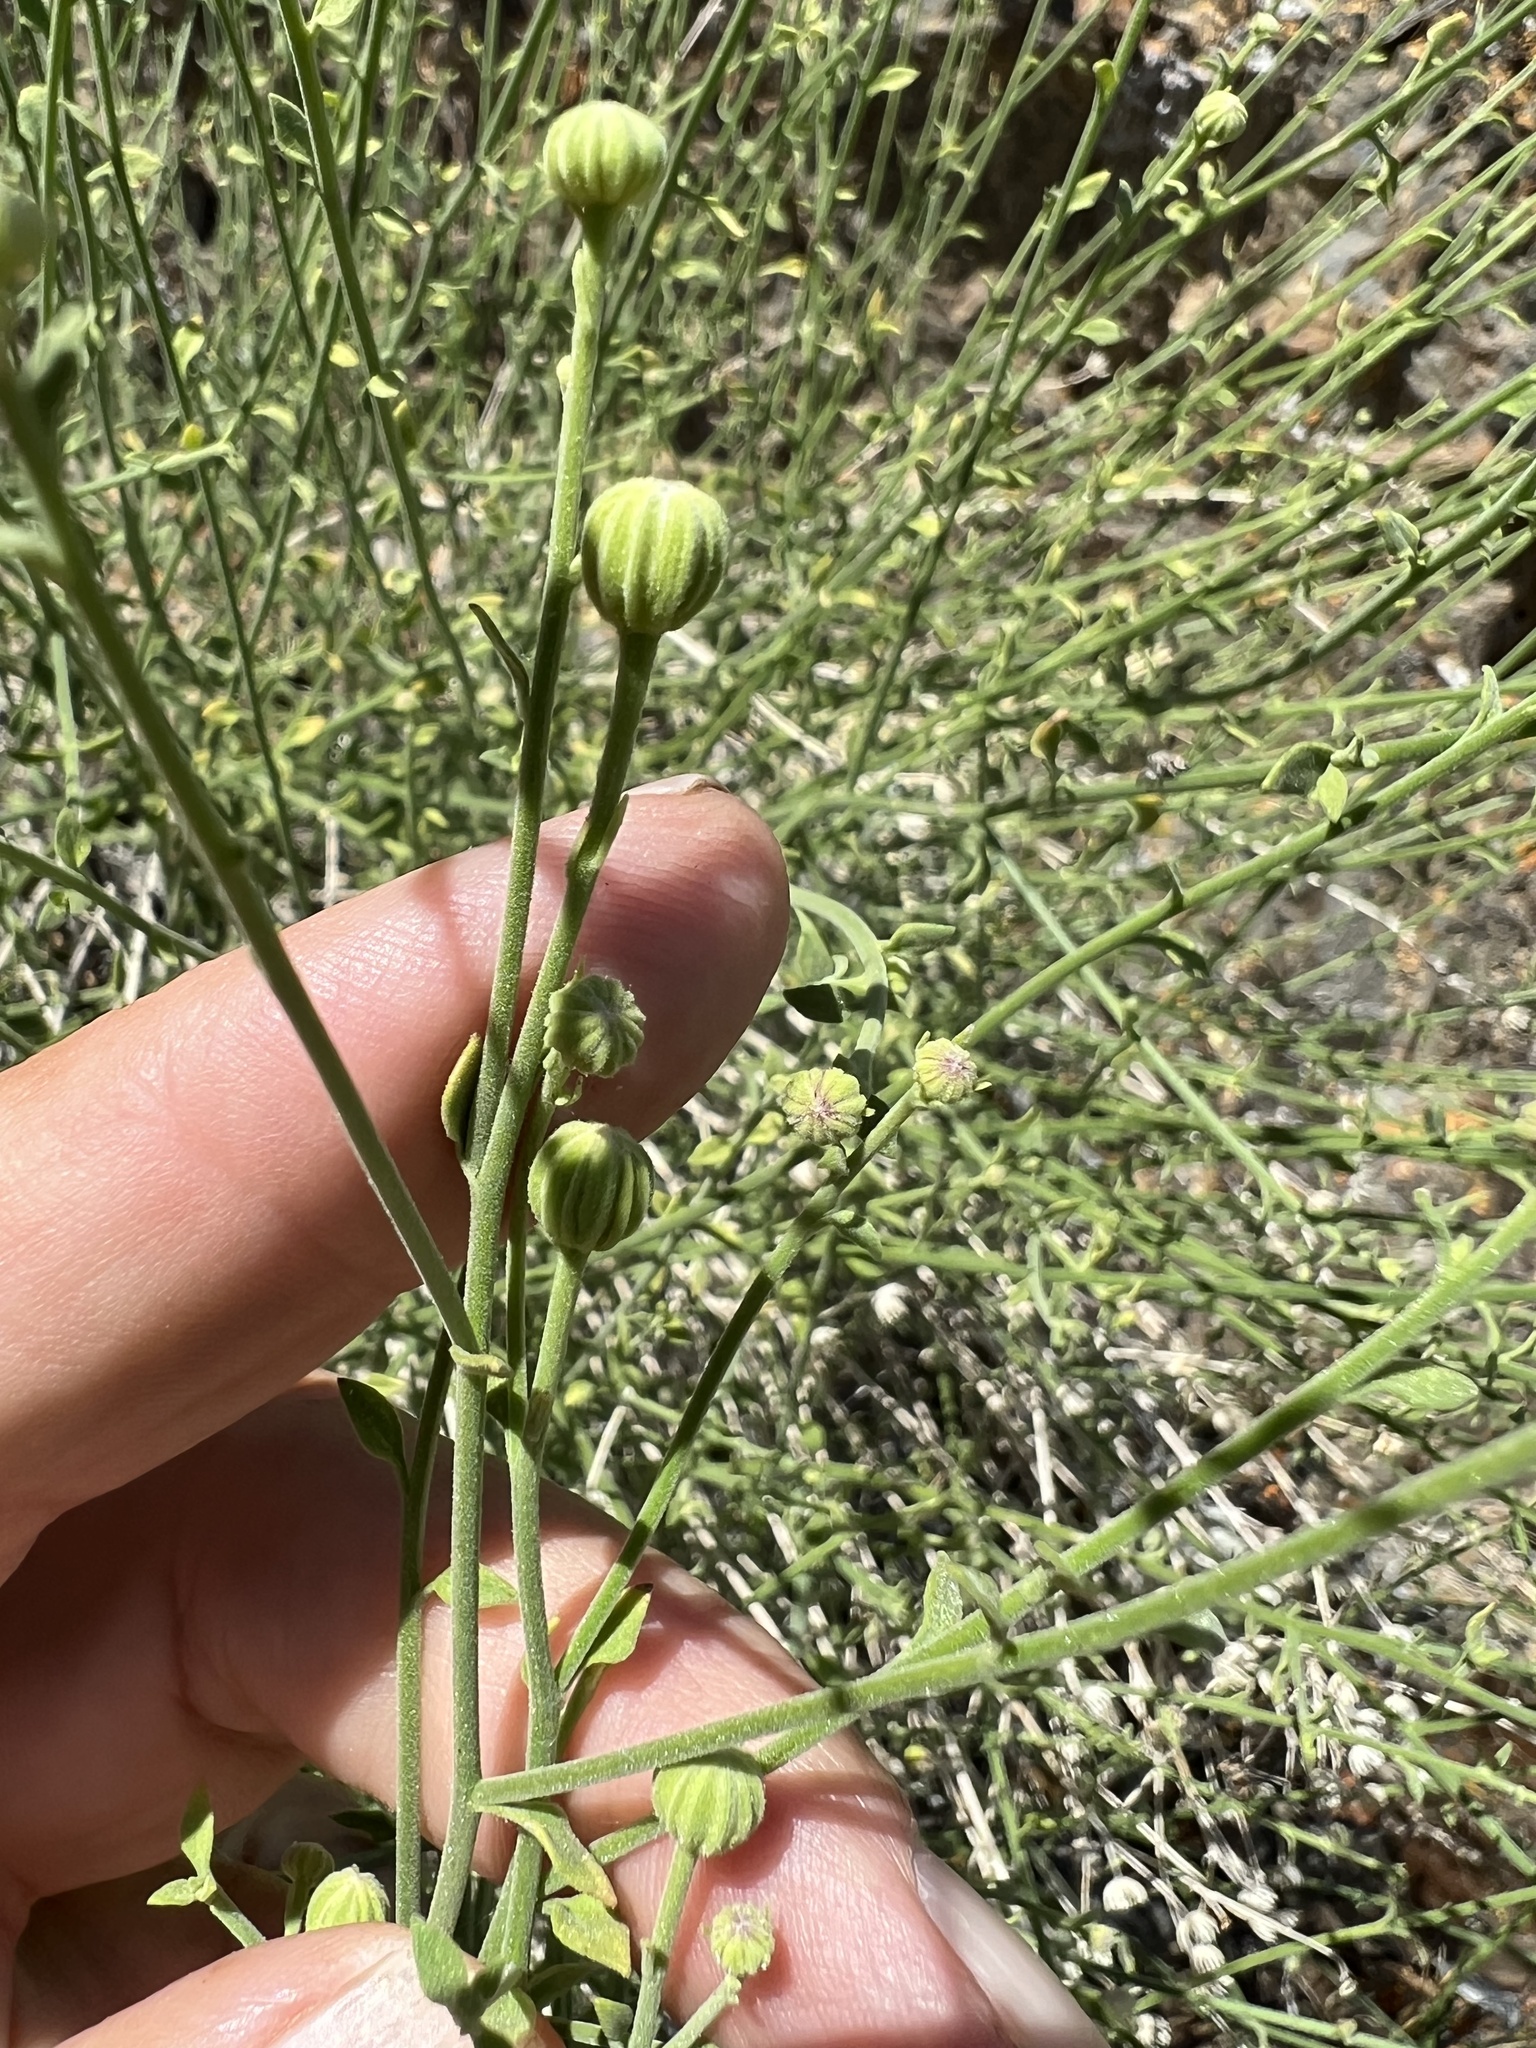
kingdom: Plantae
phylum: Tracheophyta
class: Magnoliopsida
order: Asterales
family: Asteraceae
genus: Laphamia
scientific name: Laphamia megalocephala
